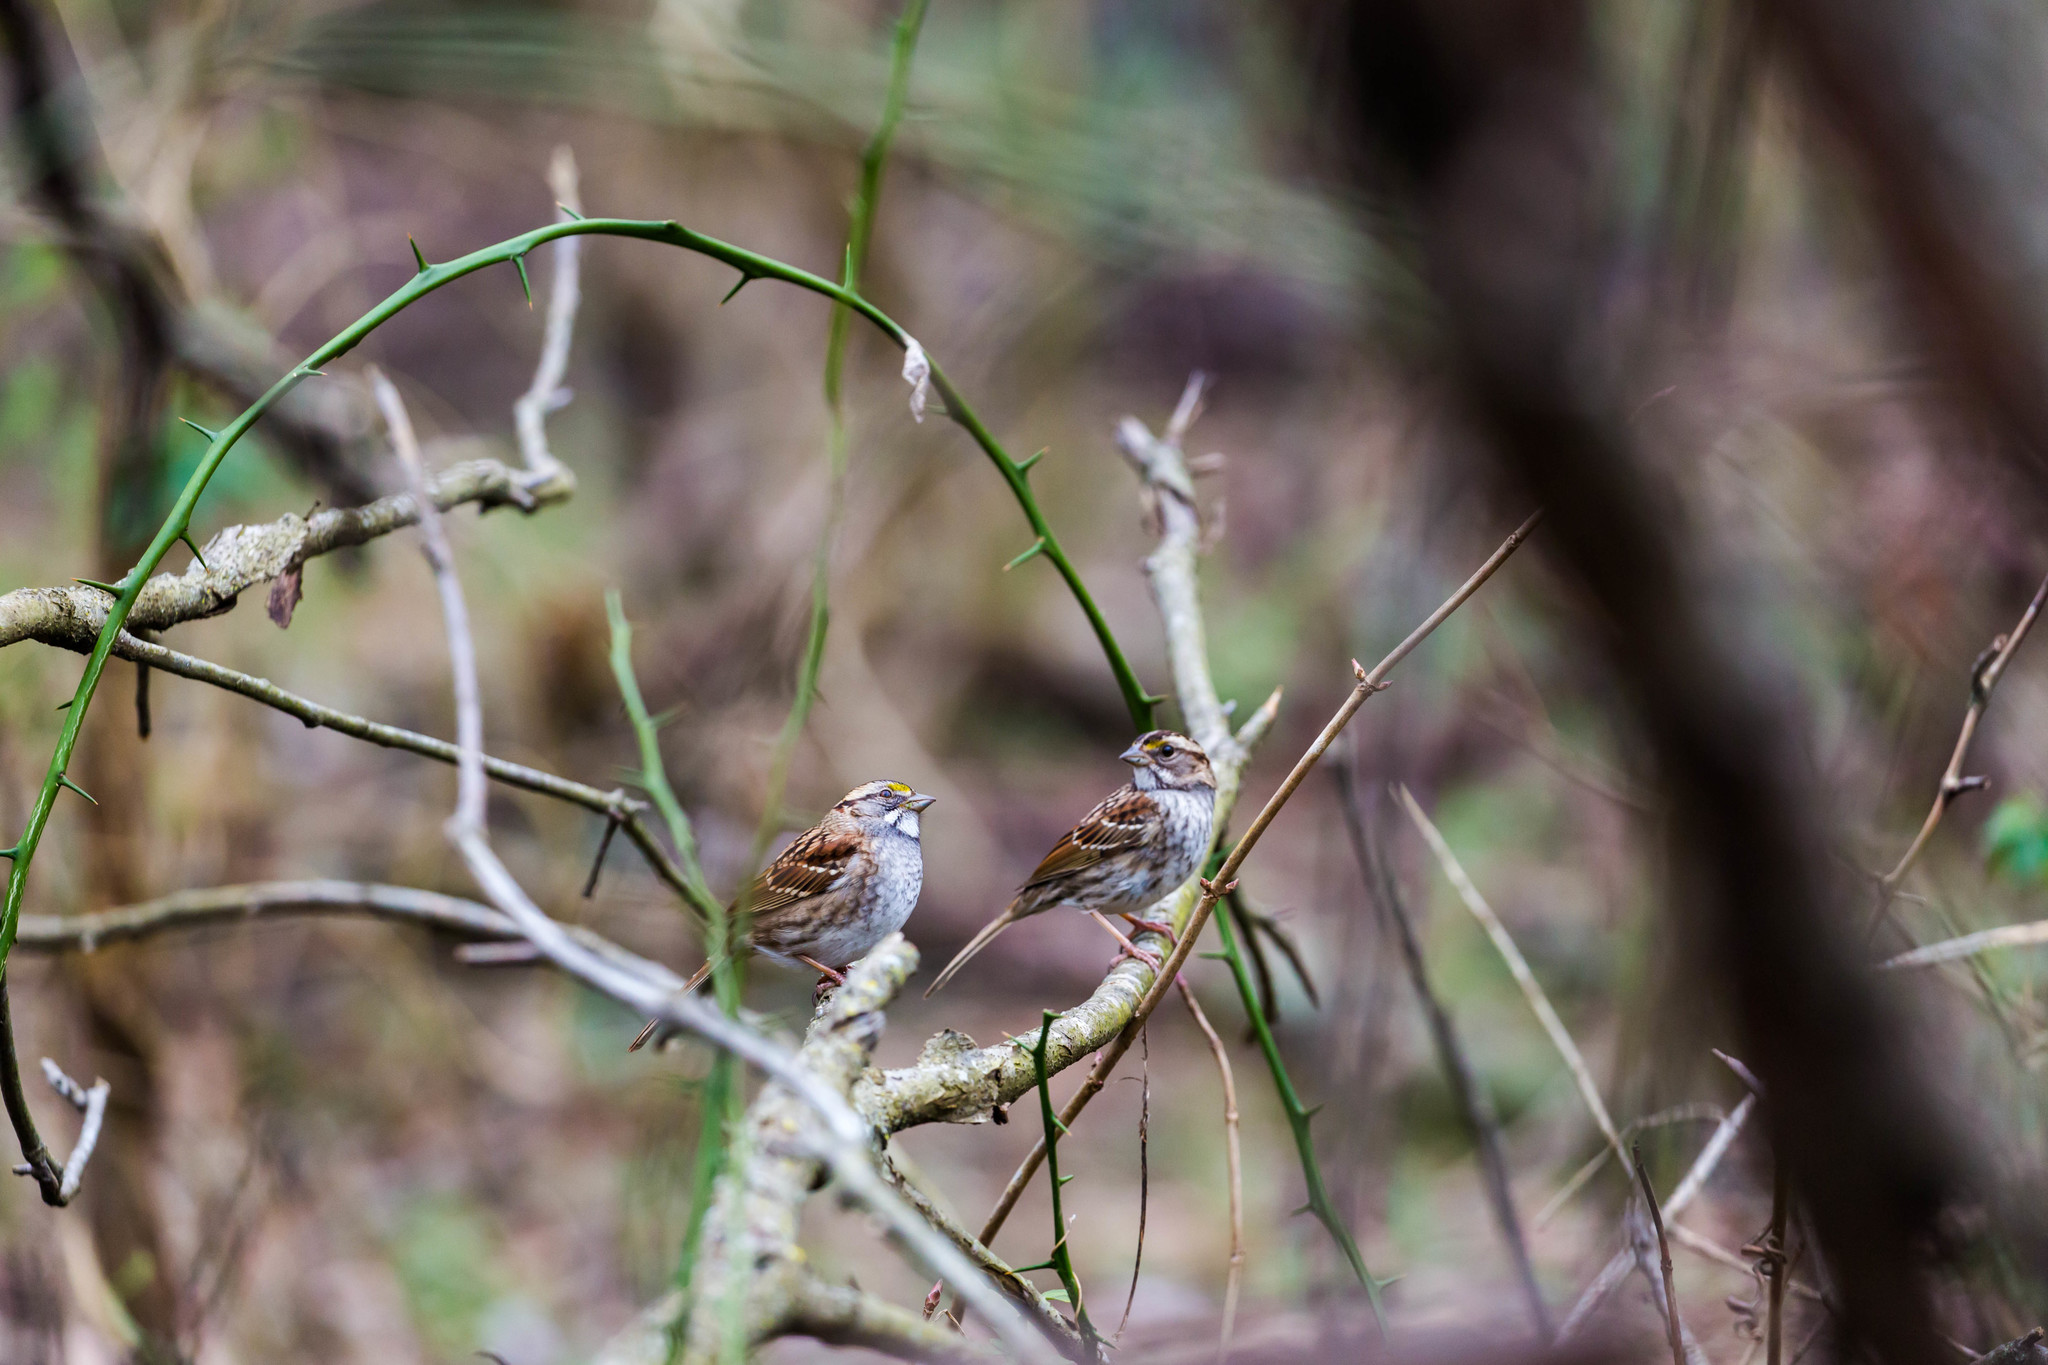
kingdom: Animalia
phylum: Chordata
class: Aves
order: Passeriformes
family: Passerellidae
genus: Zonotrichia
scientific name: Zonotrichia albicollis
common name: White-throated sparrow
